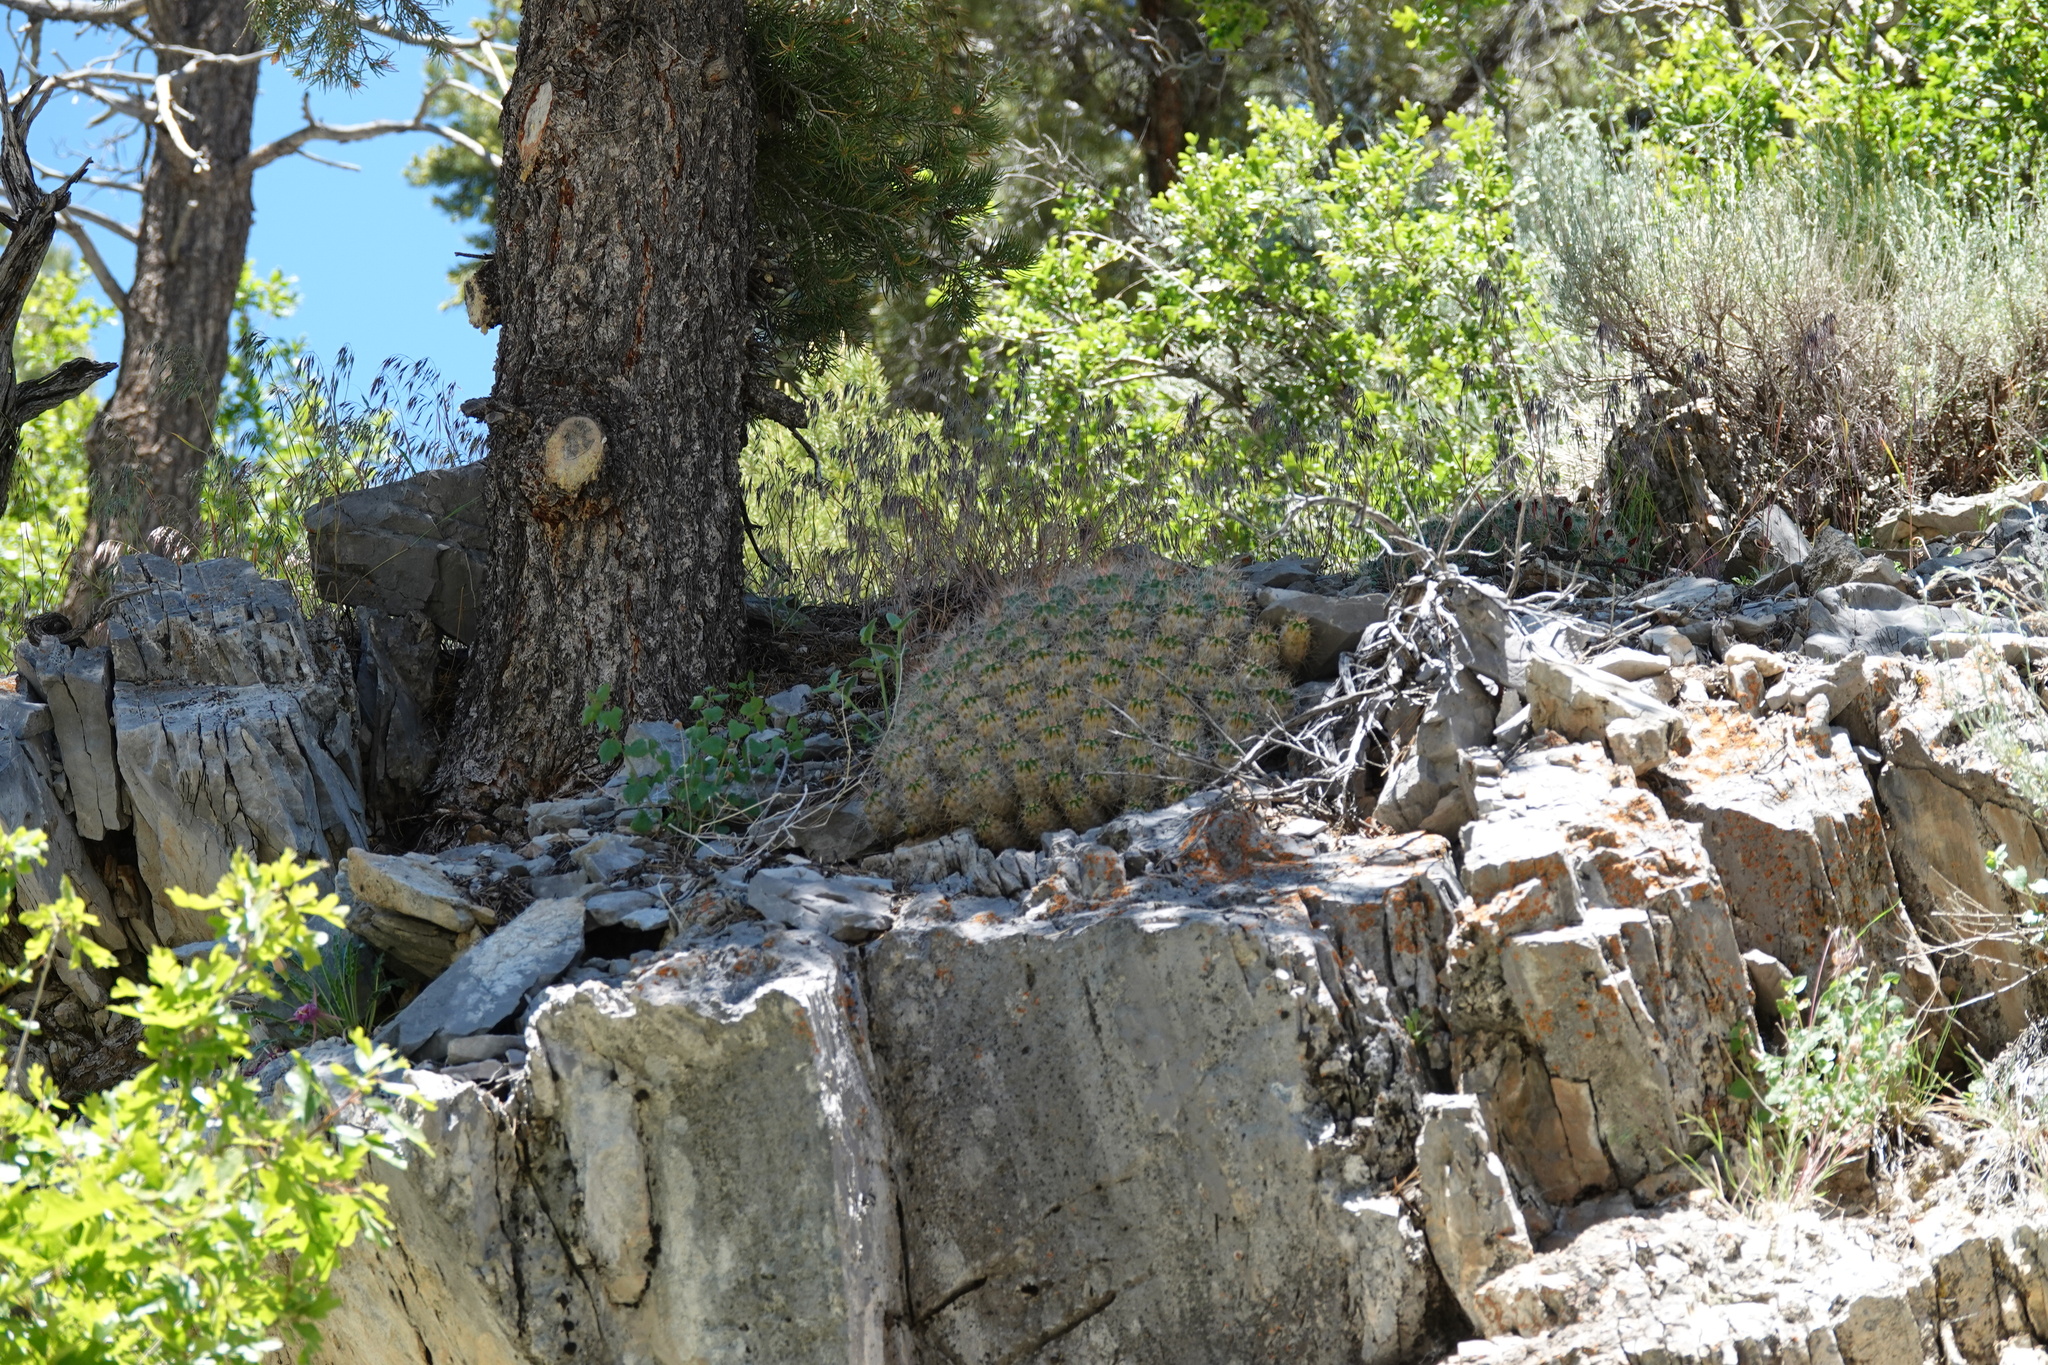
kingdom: Plantae
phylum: Tracheophyta
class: Magnoliopsida
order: Caryophyllales
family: Cactaceae
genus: Echinocereus
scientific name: Echinocereus triglochidiatus
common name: Claretcup hedgehog
